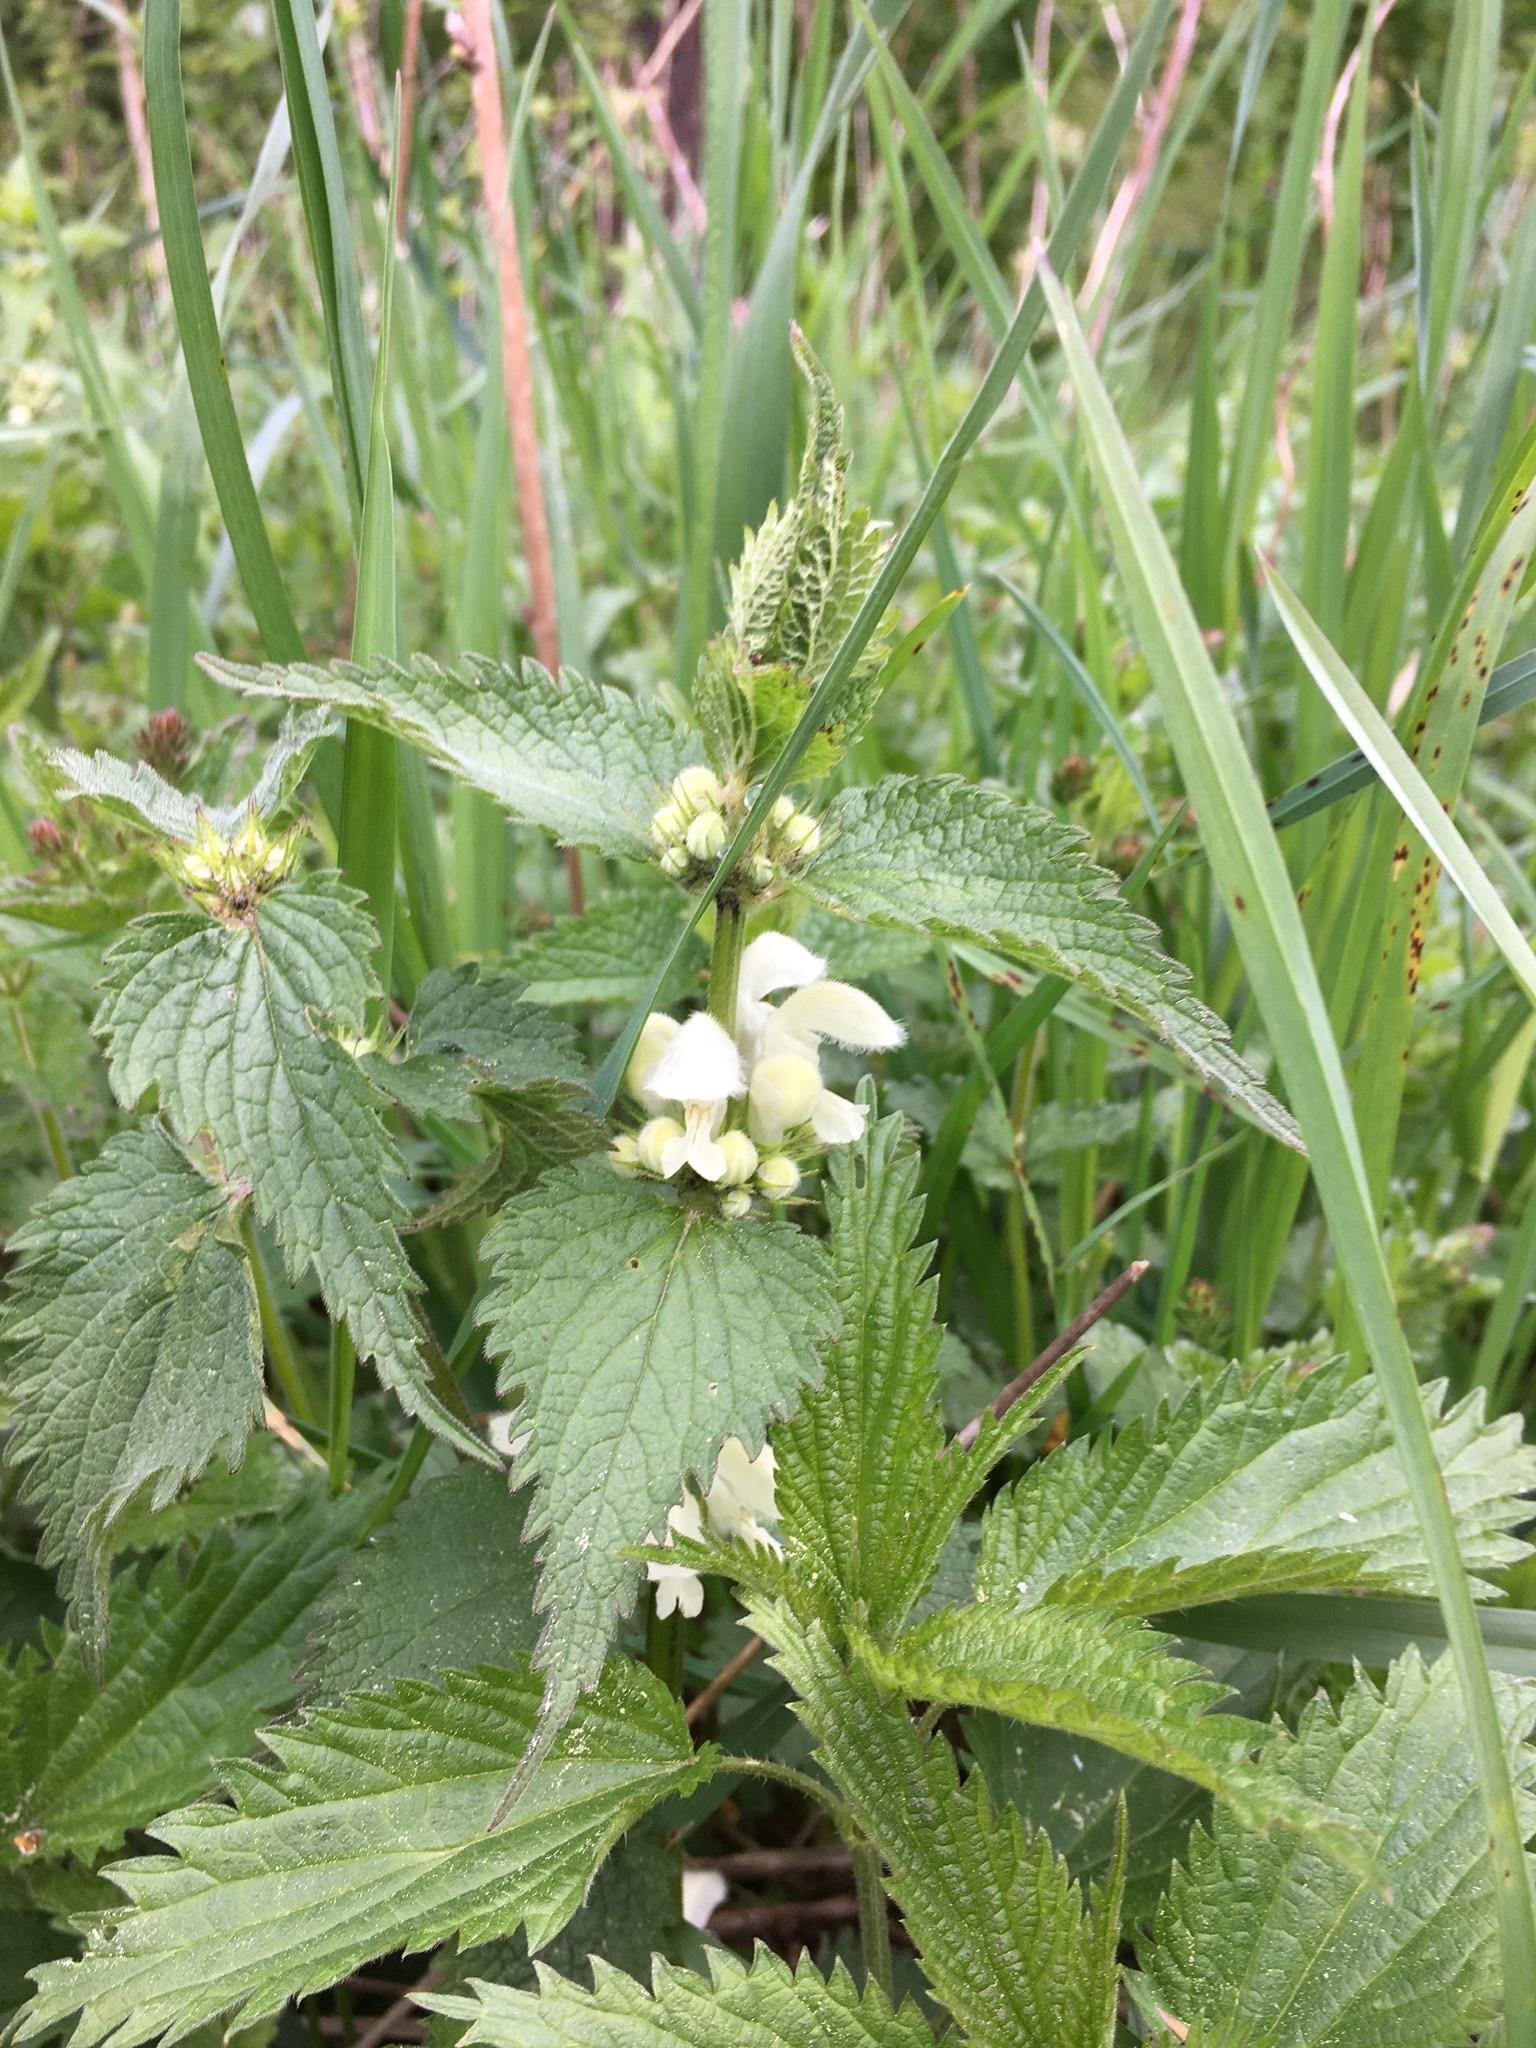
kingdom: Plantae
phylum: Tracheophyta
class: Magnoliopsida
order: Lamiales
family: Lamiaceae
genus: Lamium
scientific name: Lamium album
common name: White dead-nettle
